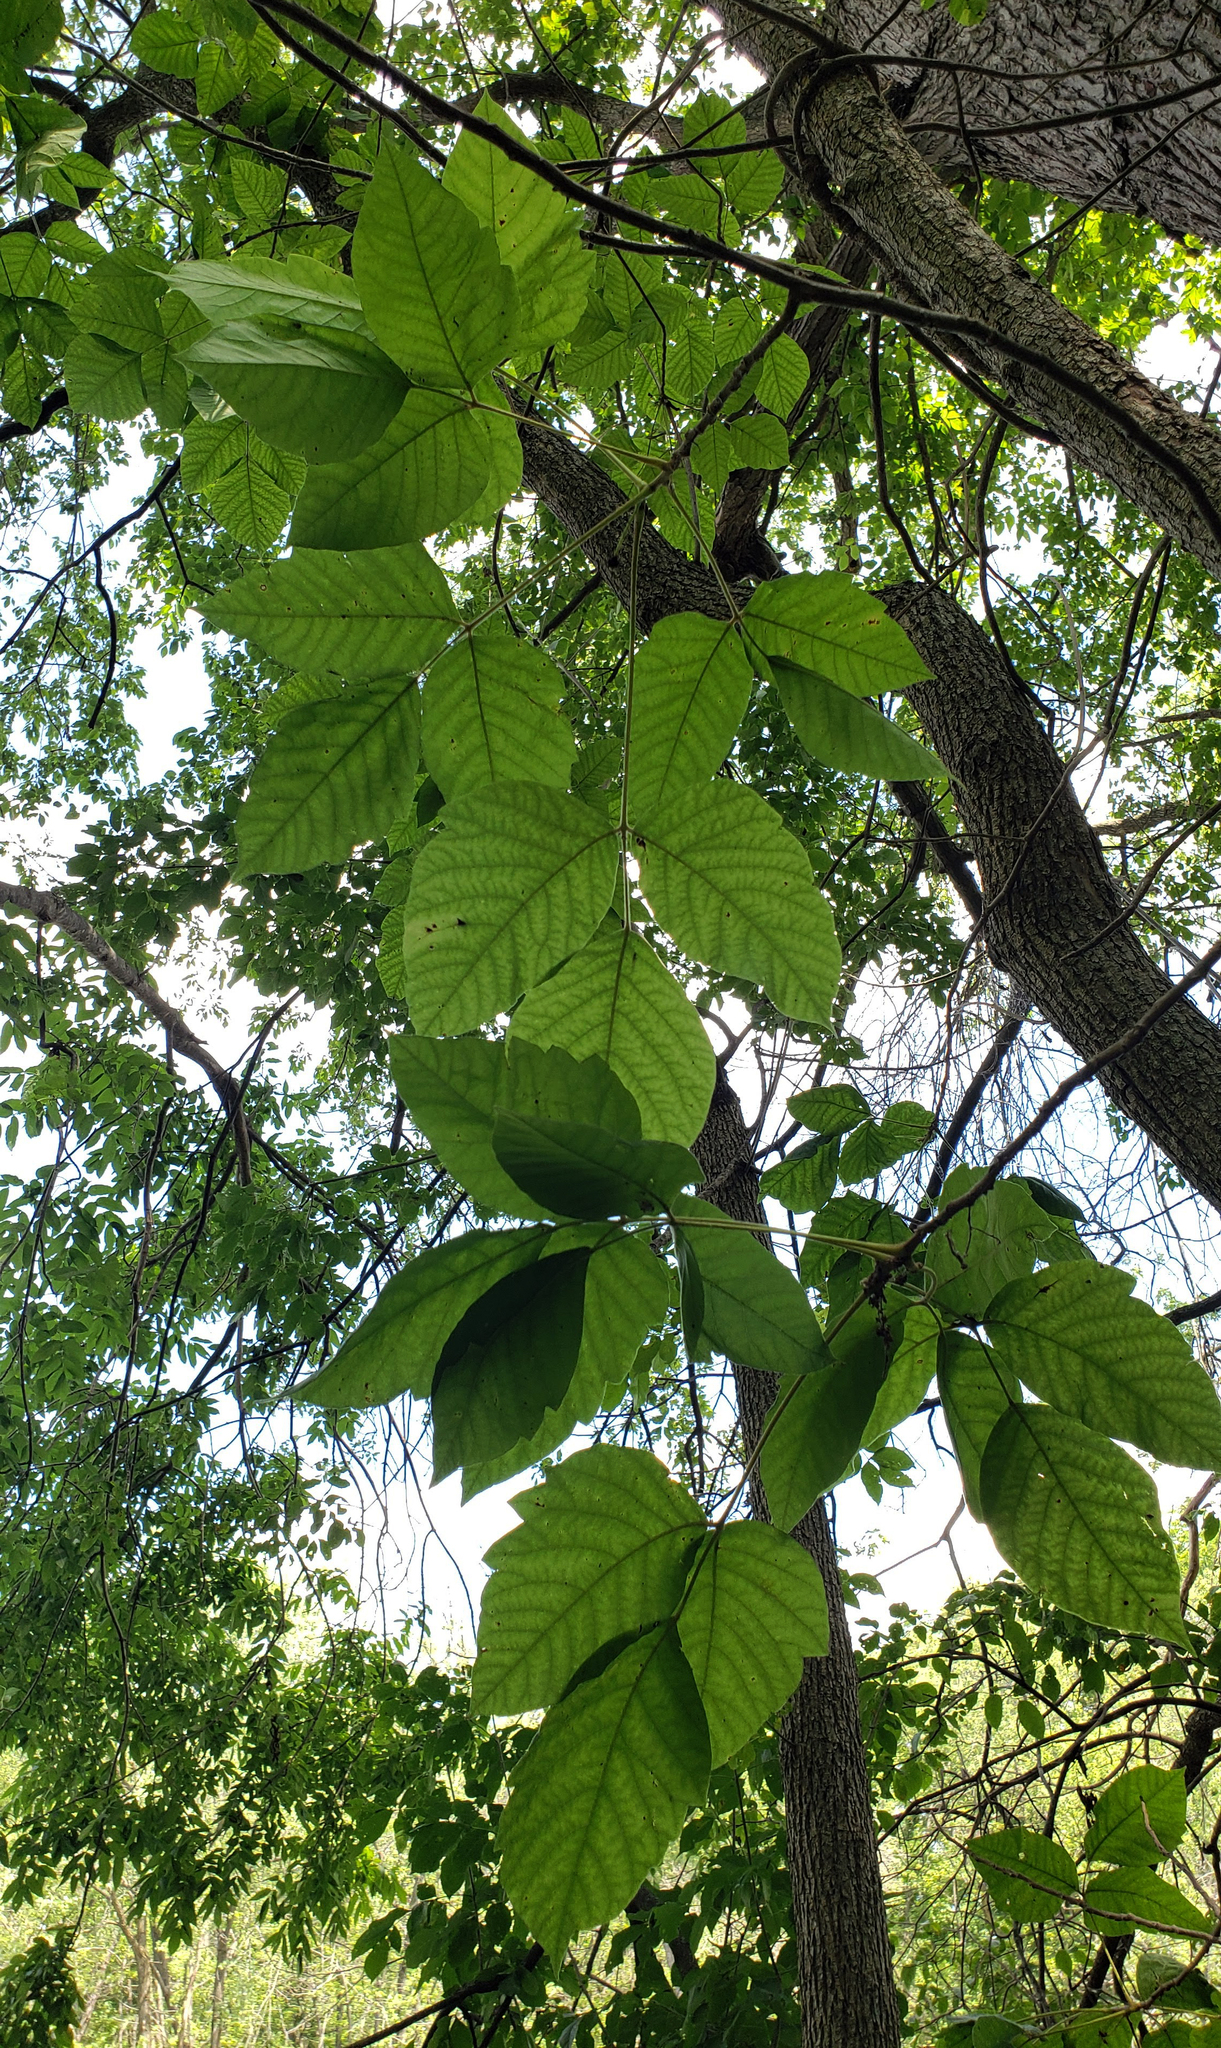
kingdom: Plantae
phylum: Tracheophyta
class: Magnoliopsida
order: Sapindales
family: Anacardiaceae
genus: Toxicodendron
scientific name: Toxicodendron radicans
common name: Poison ivy
